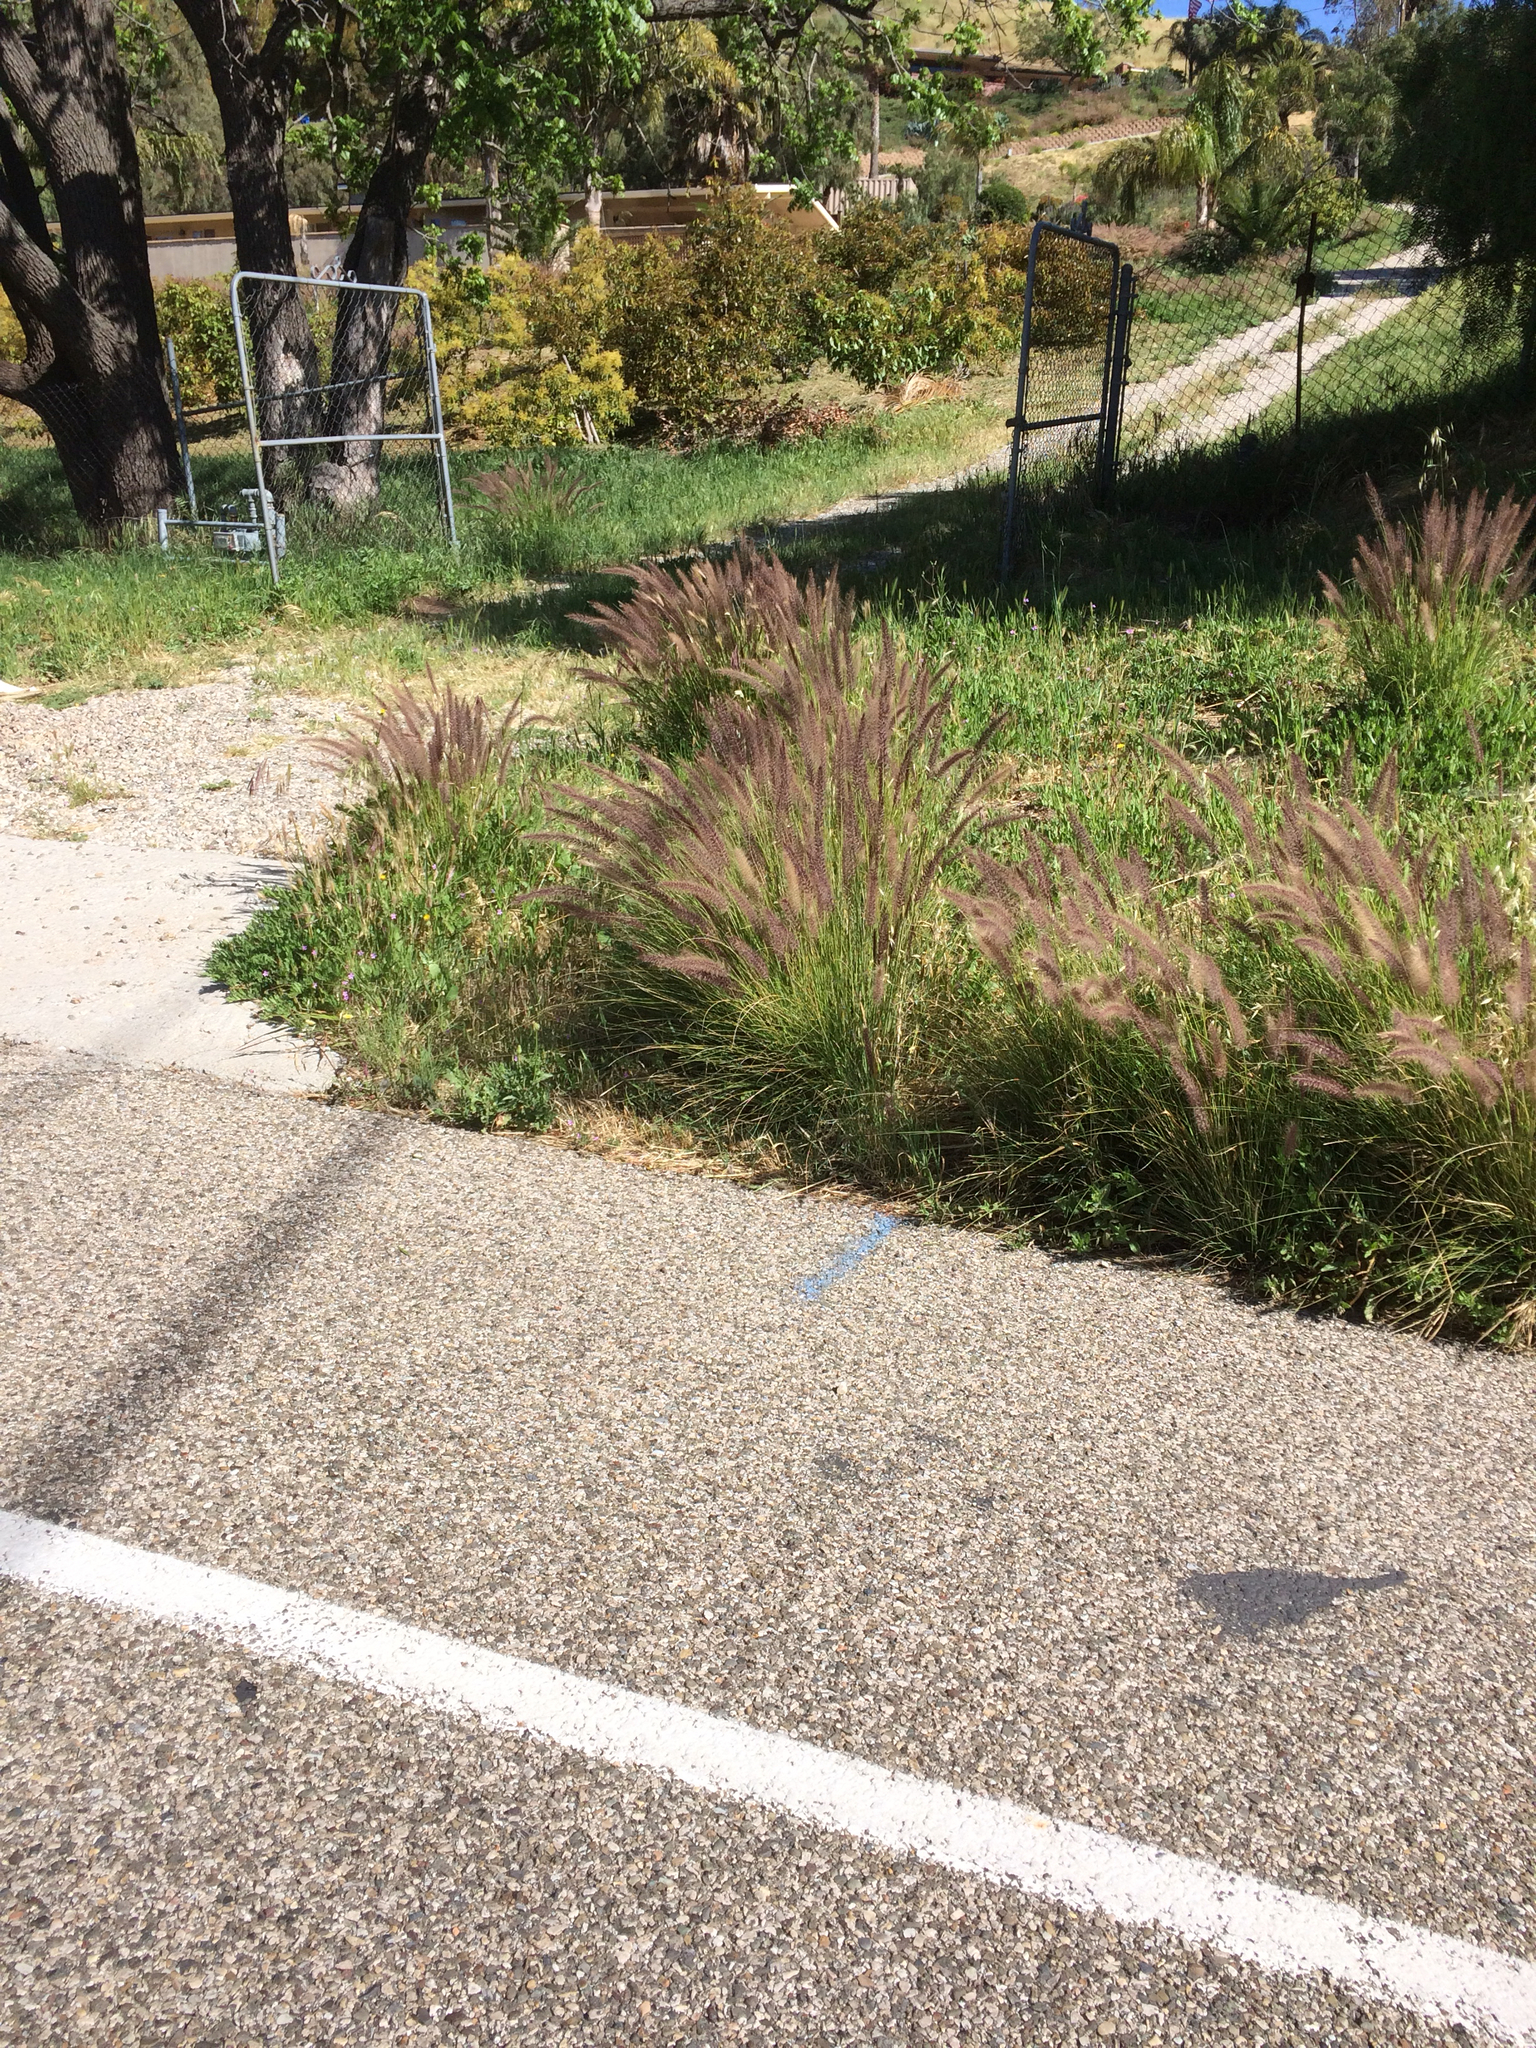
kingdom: Plantae
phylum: Tracheophyta
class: Liliopsida
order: Poales
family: Poaceae
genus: Cenchrus
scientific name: Cenchrus setaceus
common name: Crimson fountaingrass
